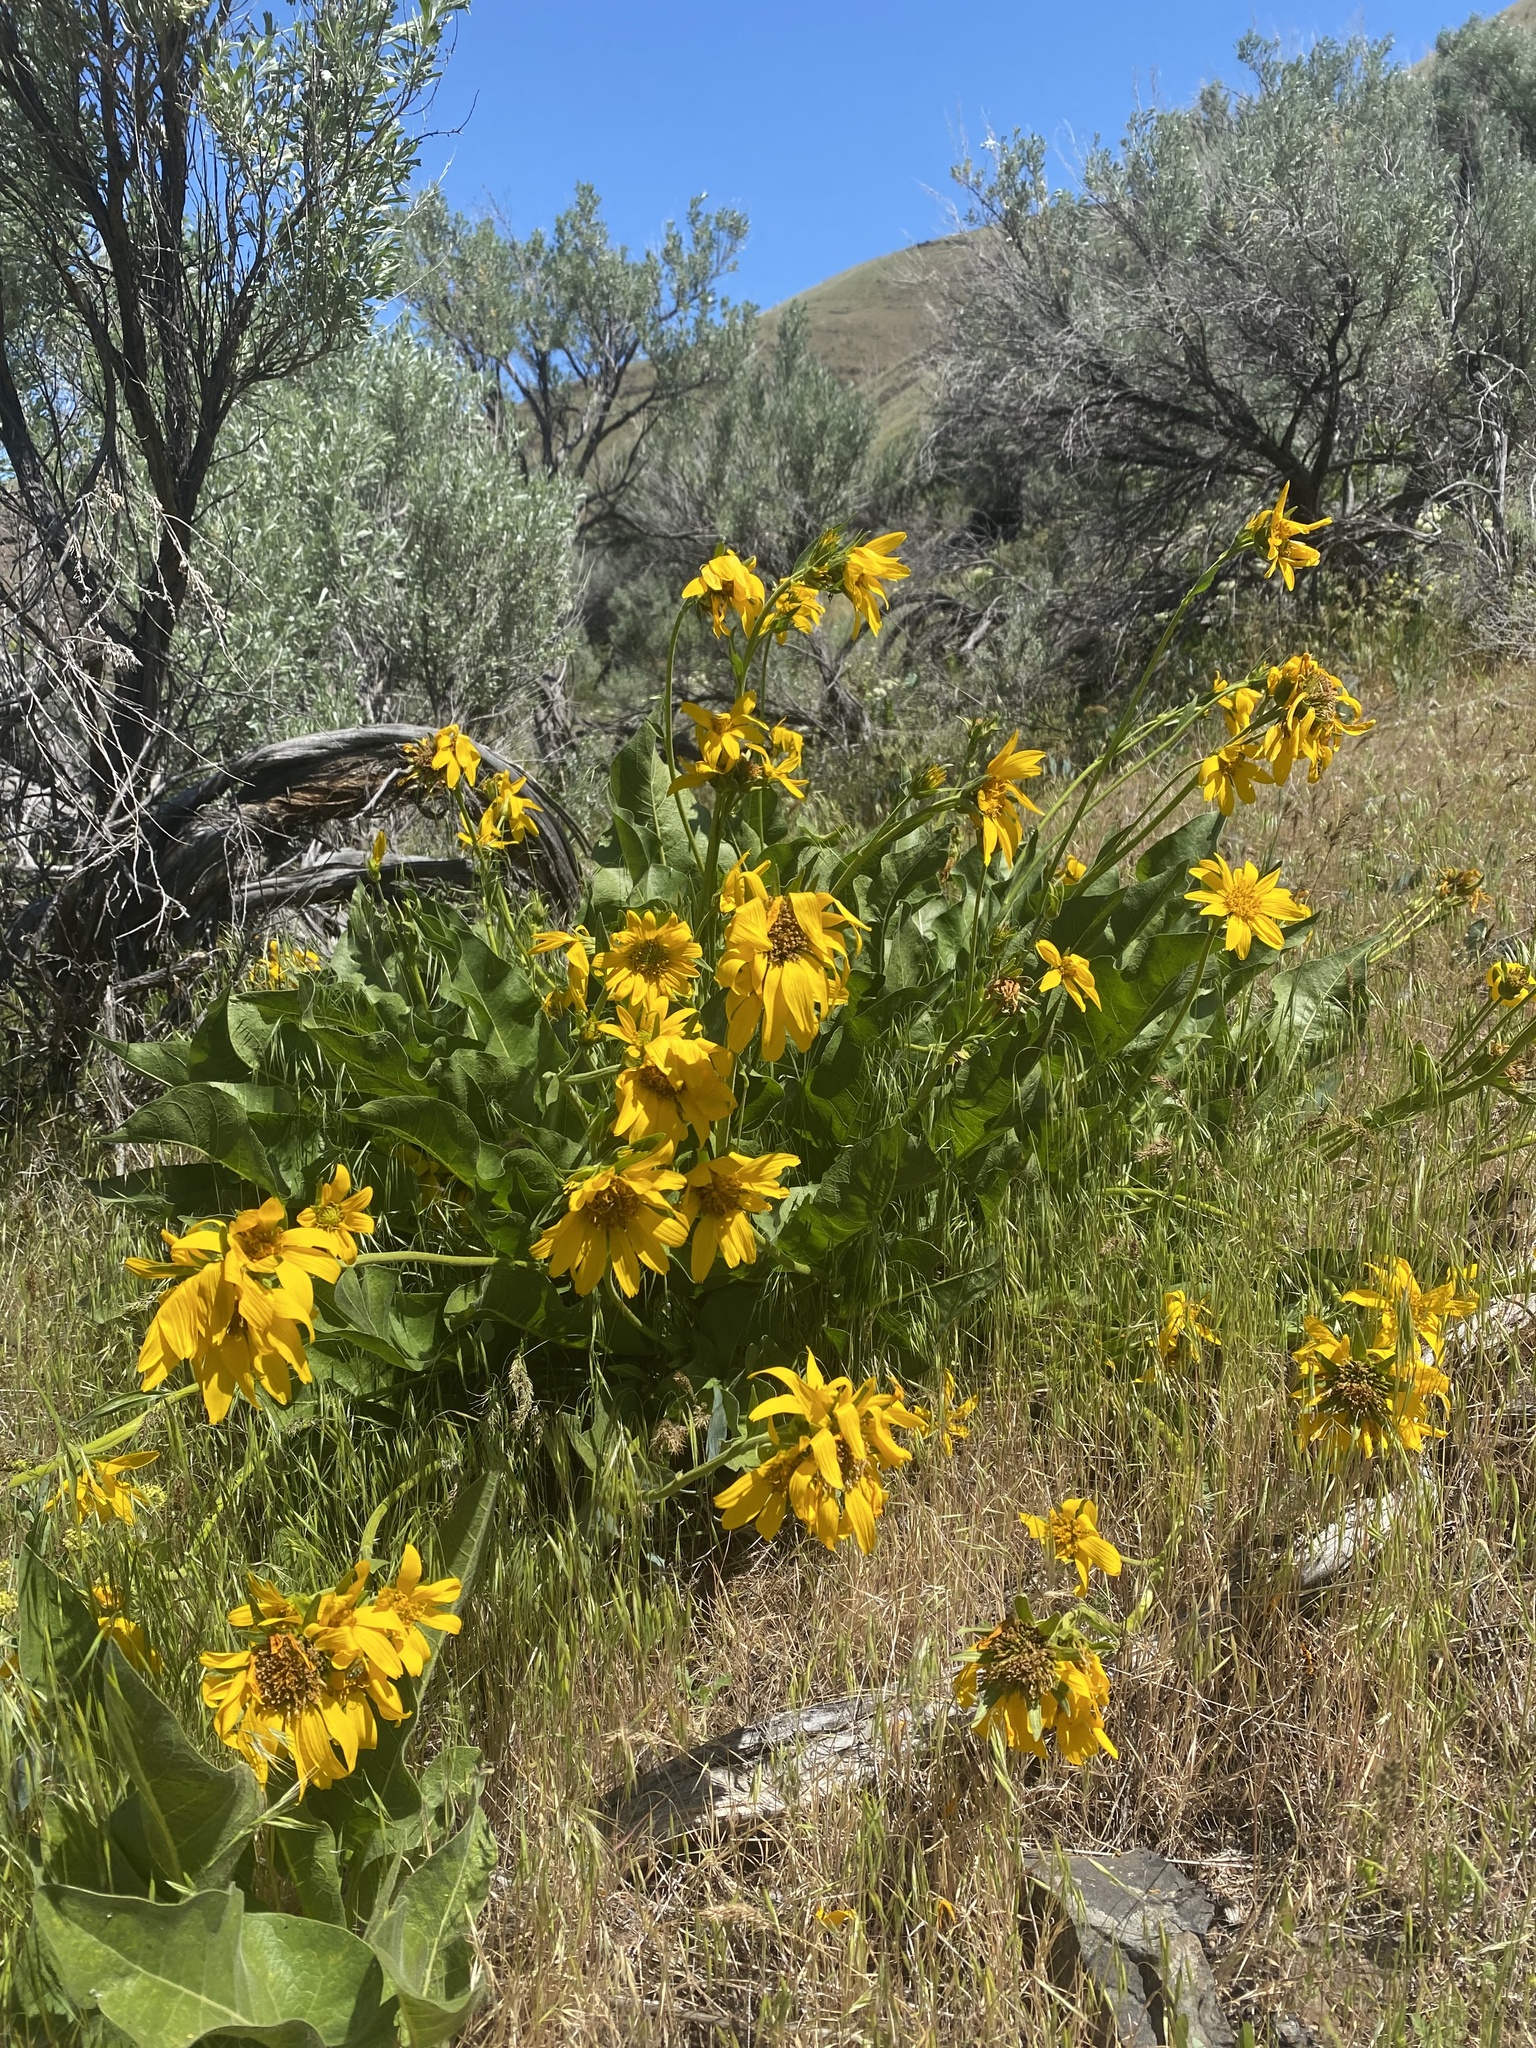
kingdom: Plantae
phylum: Tracheophyta
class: Magnoliopsida
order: Asterales
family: Asteraceae
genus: Balsamorhiza
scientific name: Balsamorhiza careyana
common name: Carey's balsamroot
